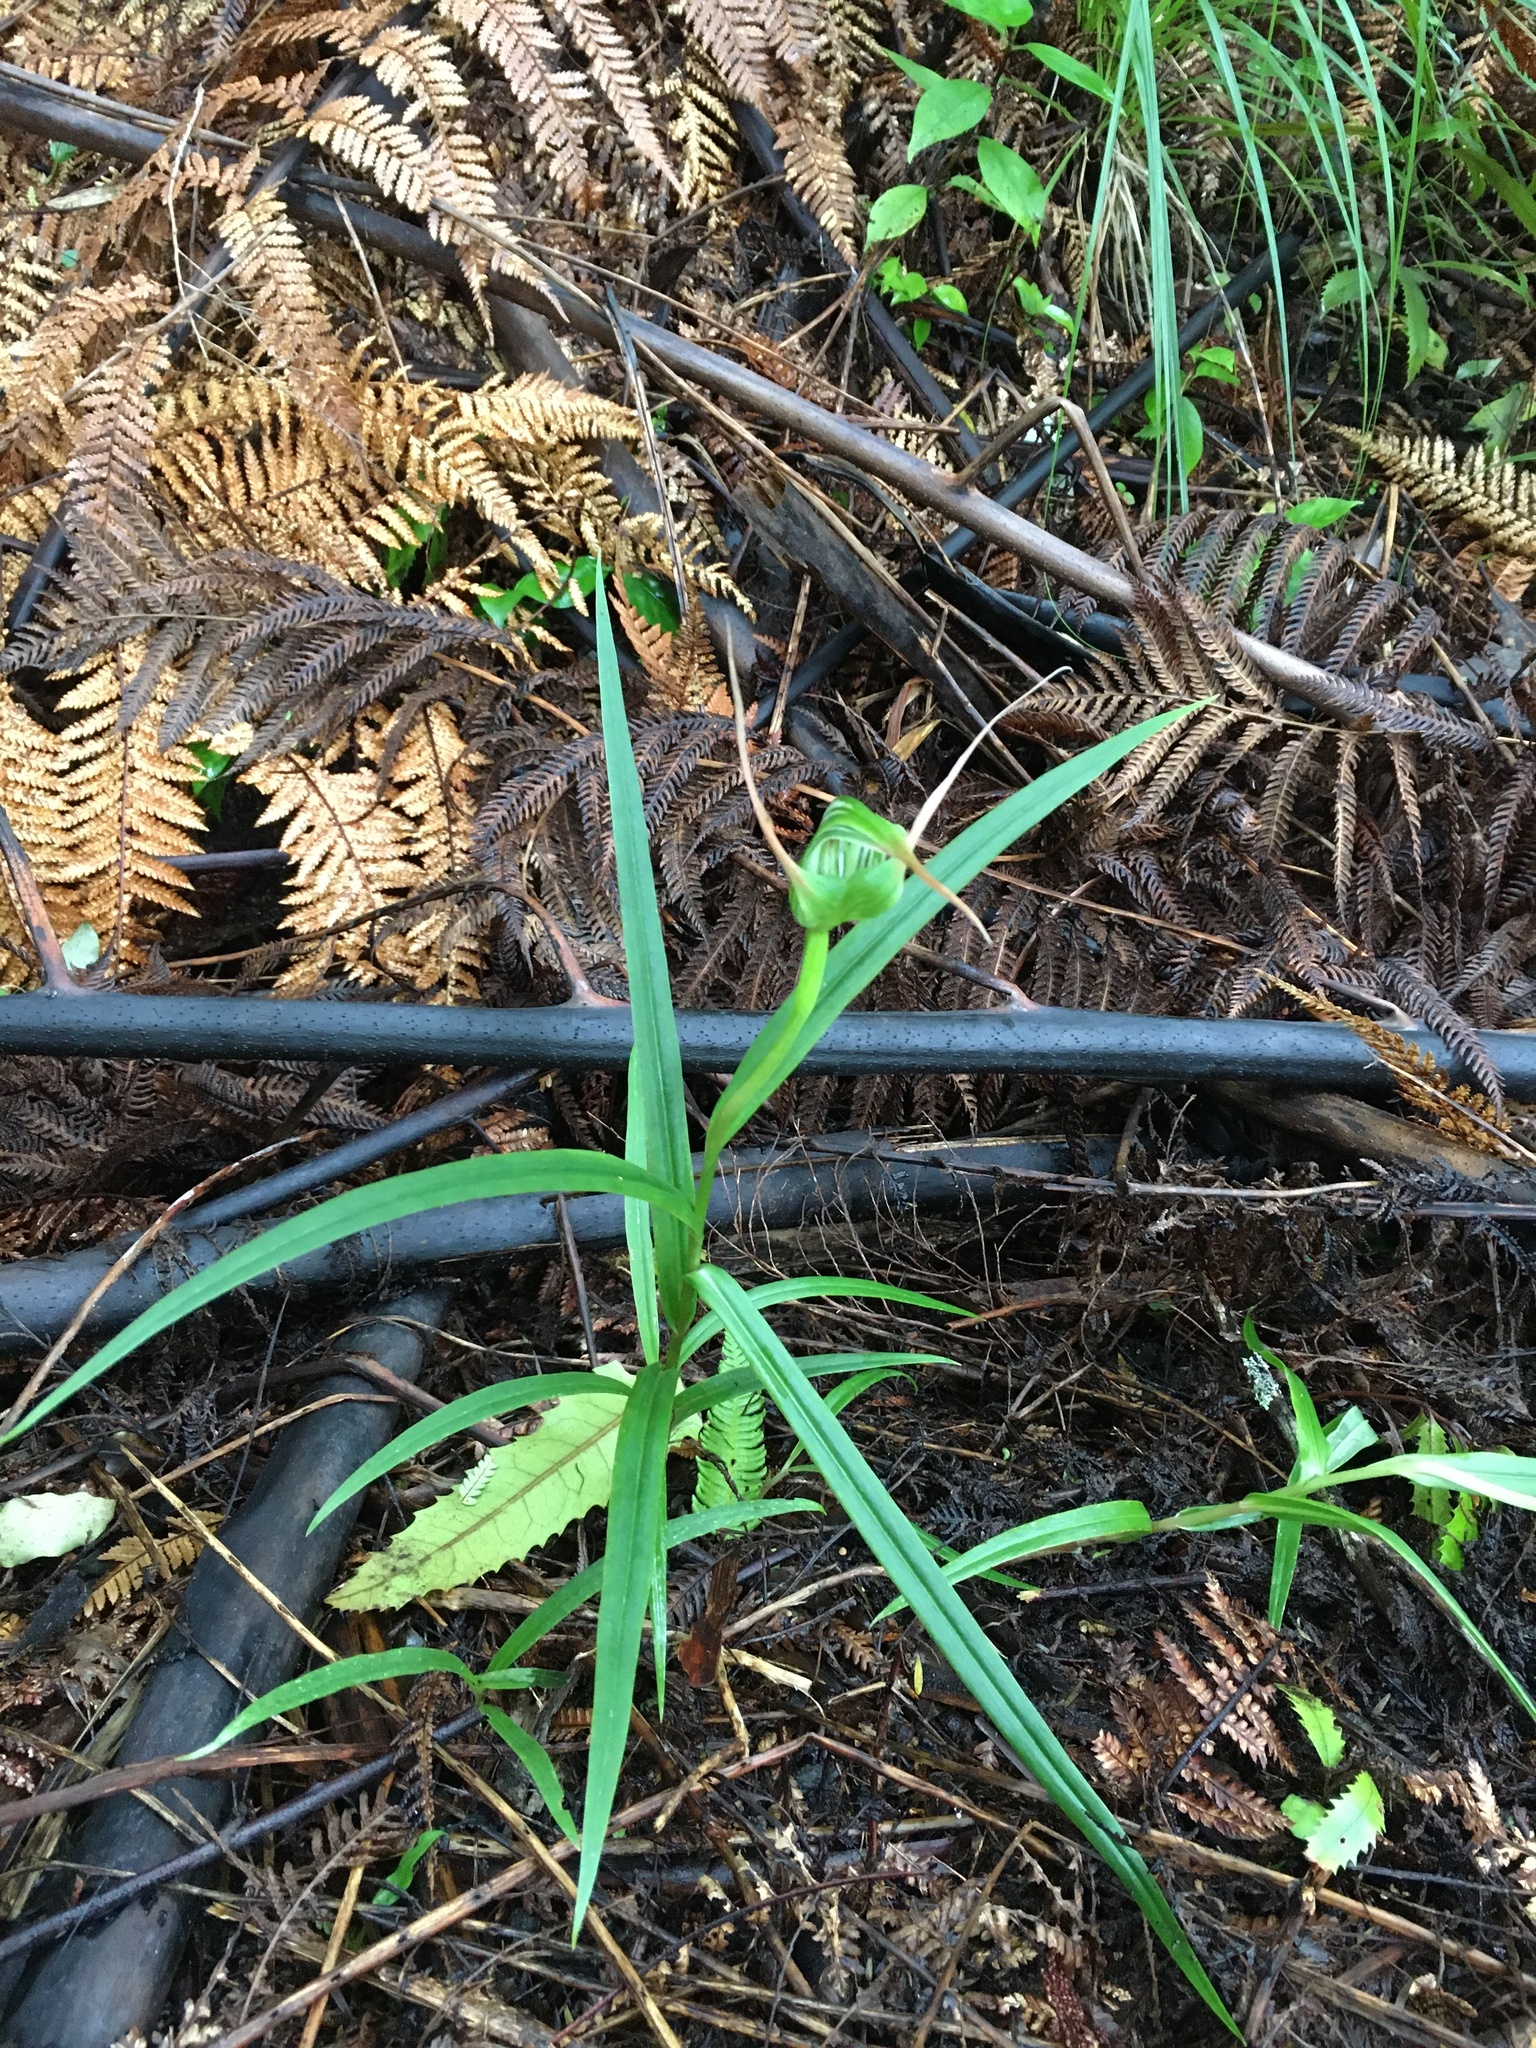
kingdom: Plantae
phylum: Tracheophyta
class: Liliopsida
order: Asparagales
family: Orchidaceae
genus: Pterostylis
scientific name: Pterostylis banksii
